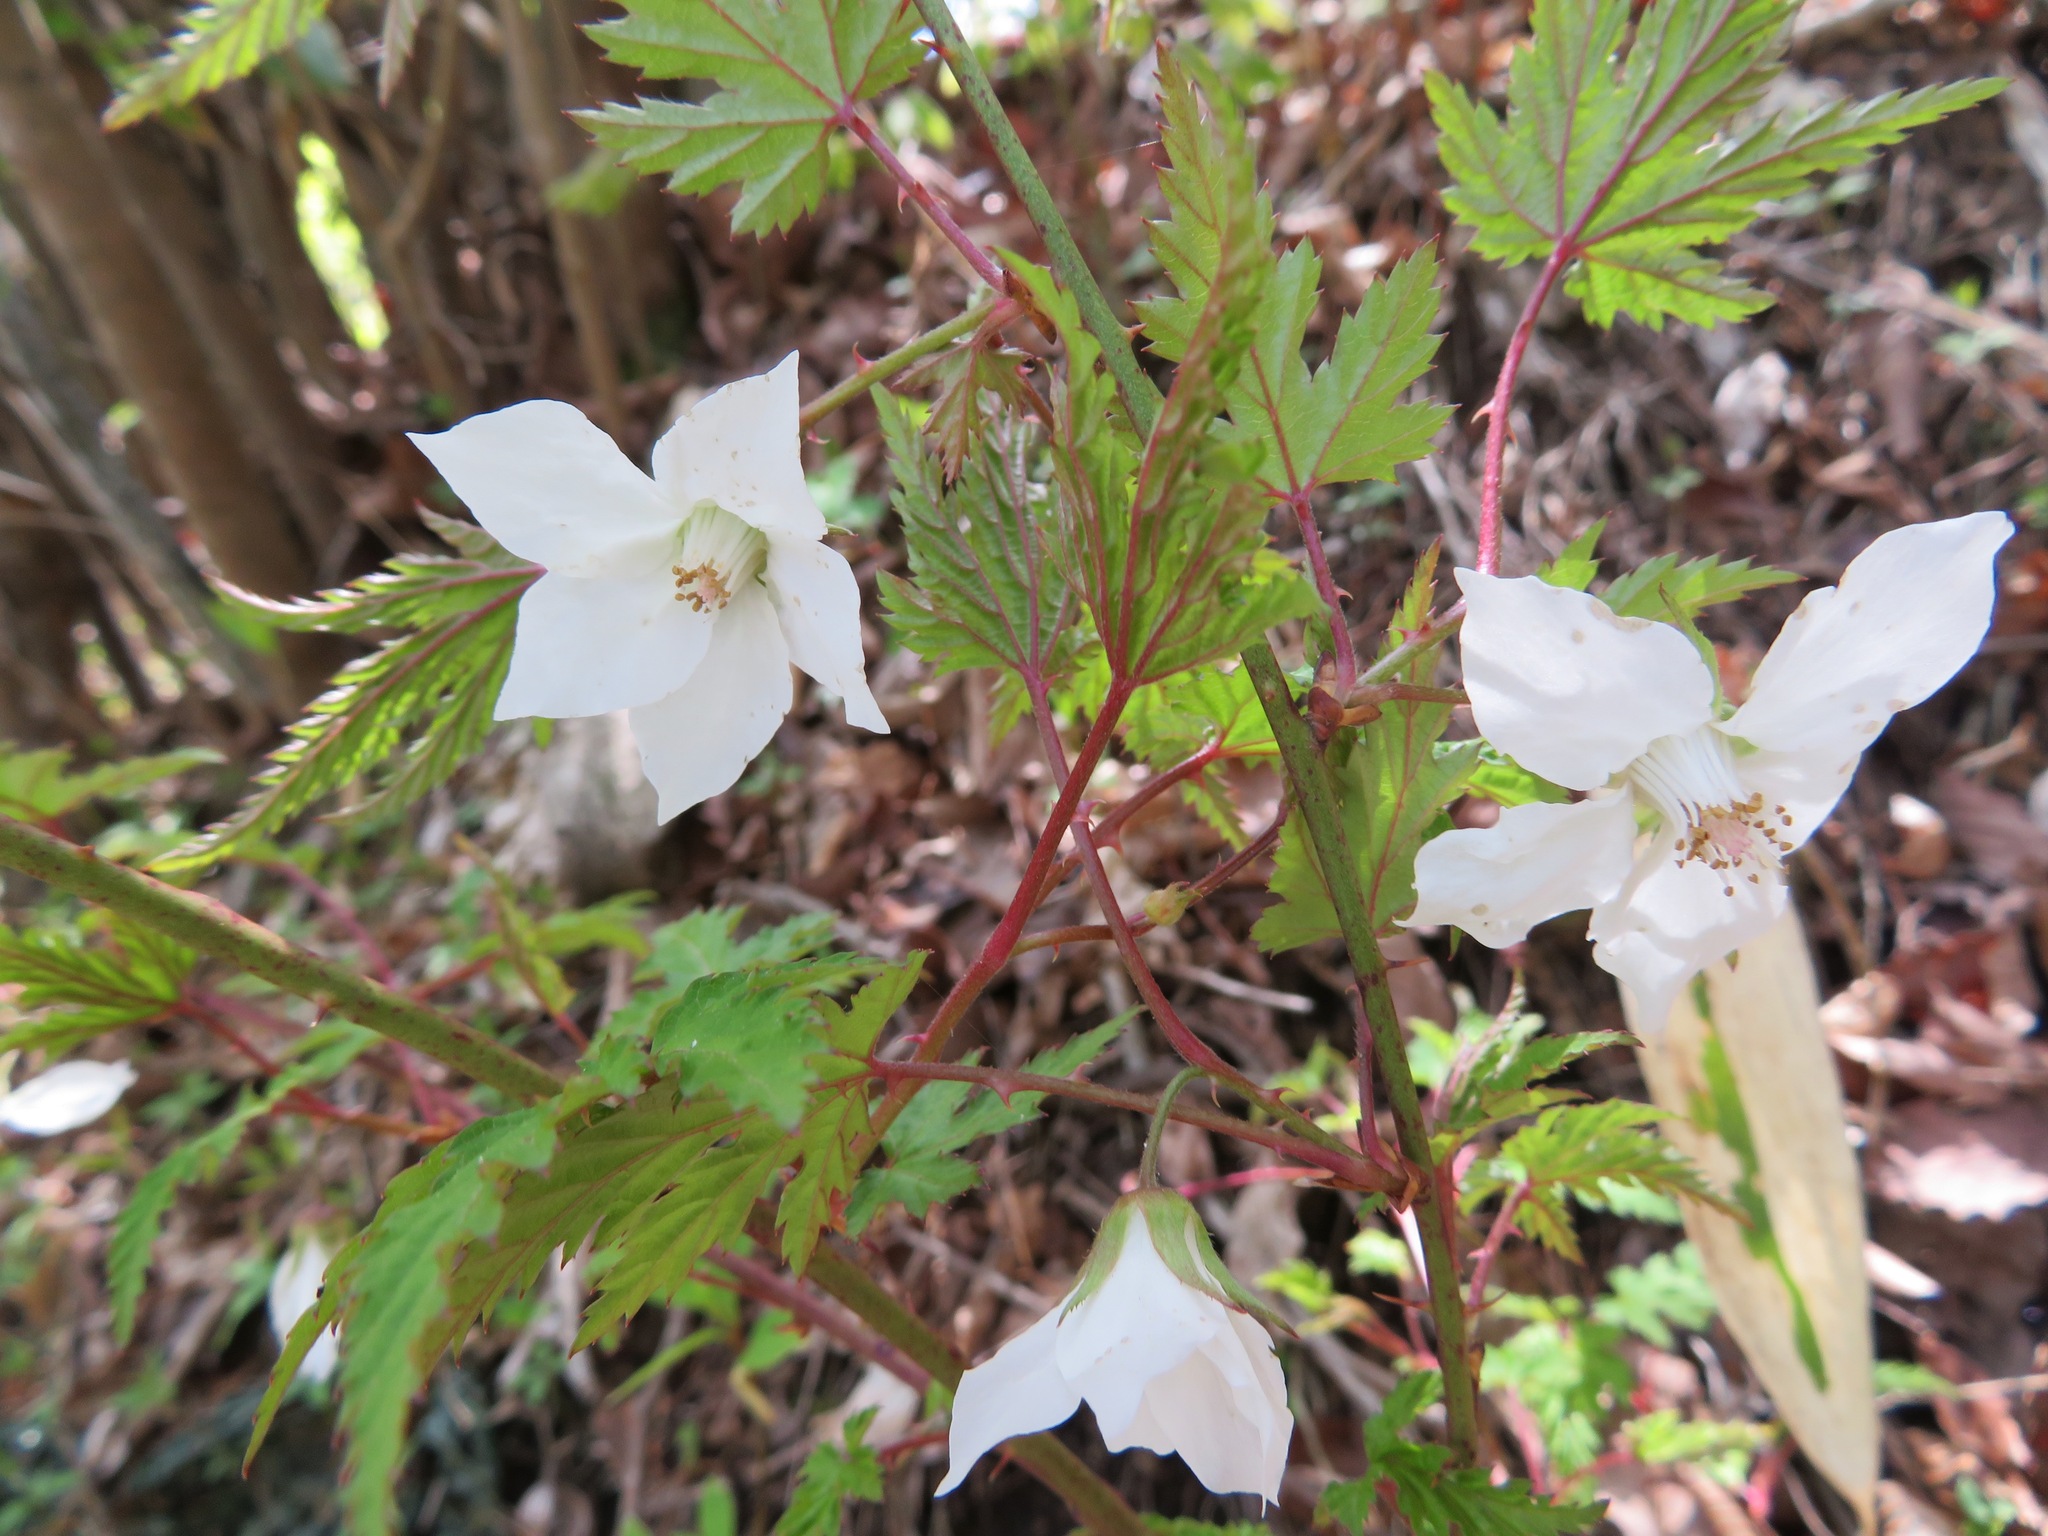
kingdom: Plantae
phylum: Tracheophyta
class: Magnoliopsida
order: Rosales
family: Rosaceae
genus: Rubus
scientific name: Rubus palmatus
